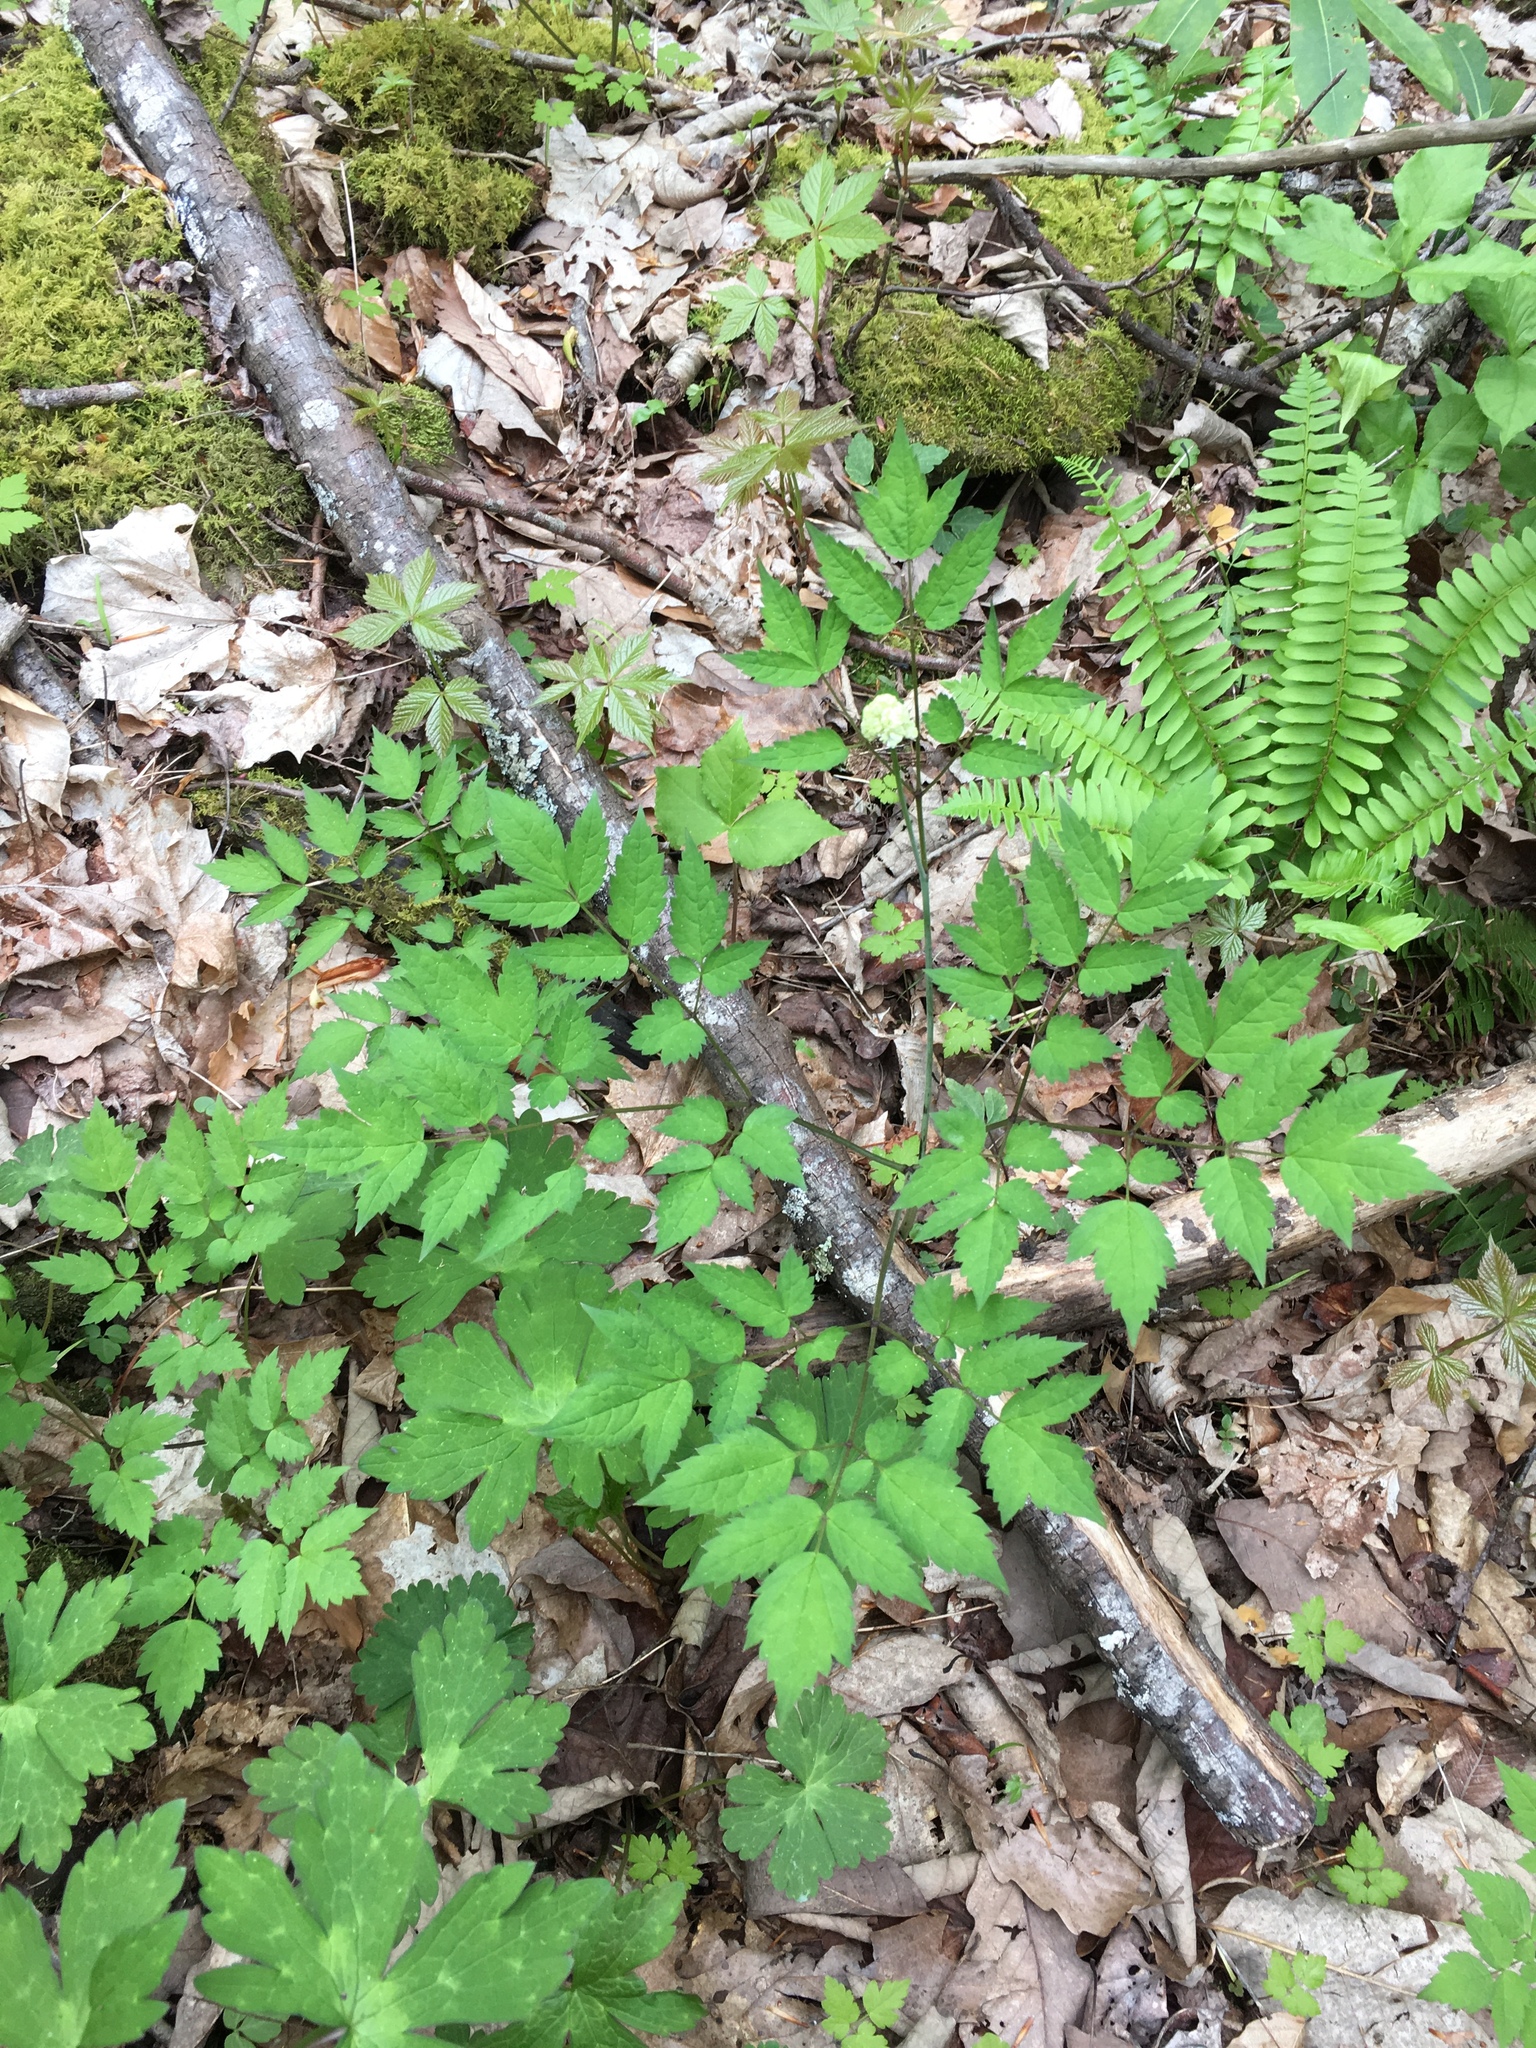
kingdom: Plantae
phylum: Tracheophyta
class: Magnoliopsida
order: Ranunculales
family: Ranunculaceae
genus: Actaea
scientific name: Actaea pachypoda
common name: Doll's-eyes
